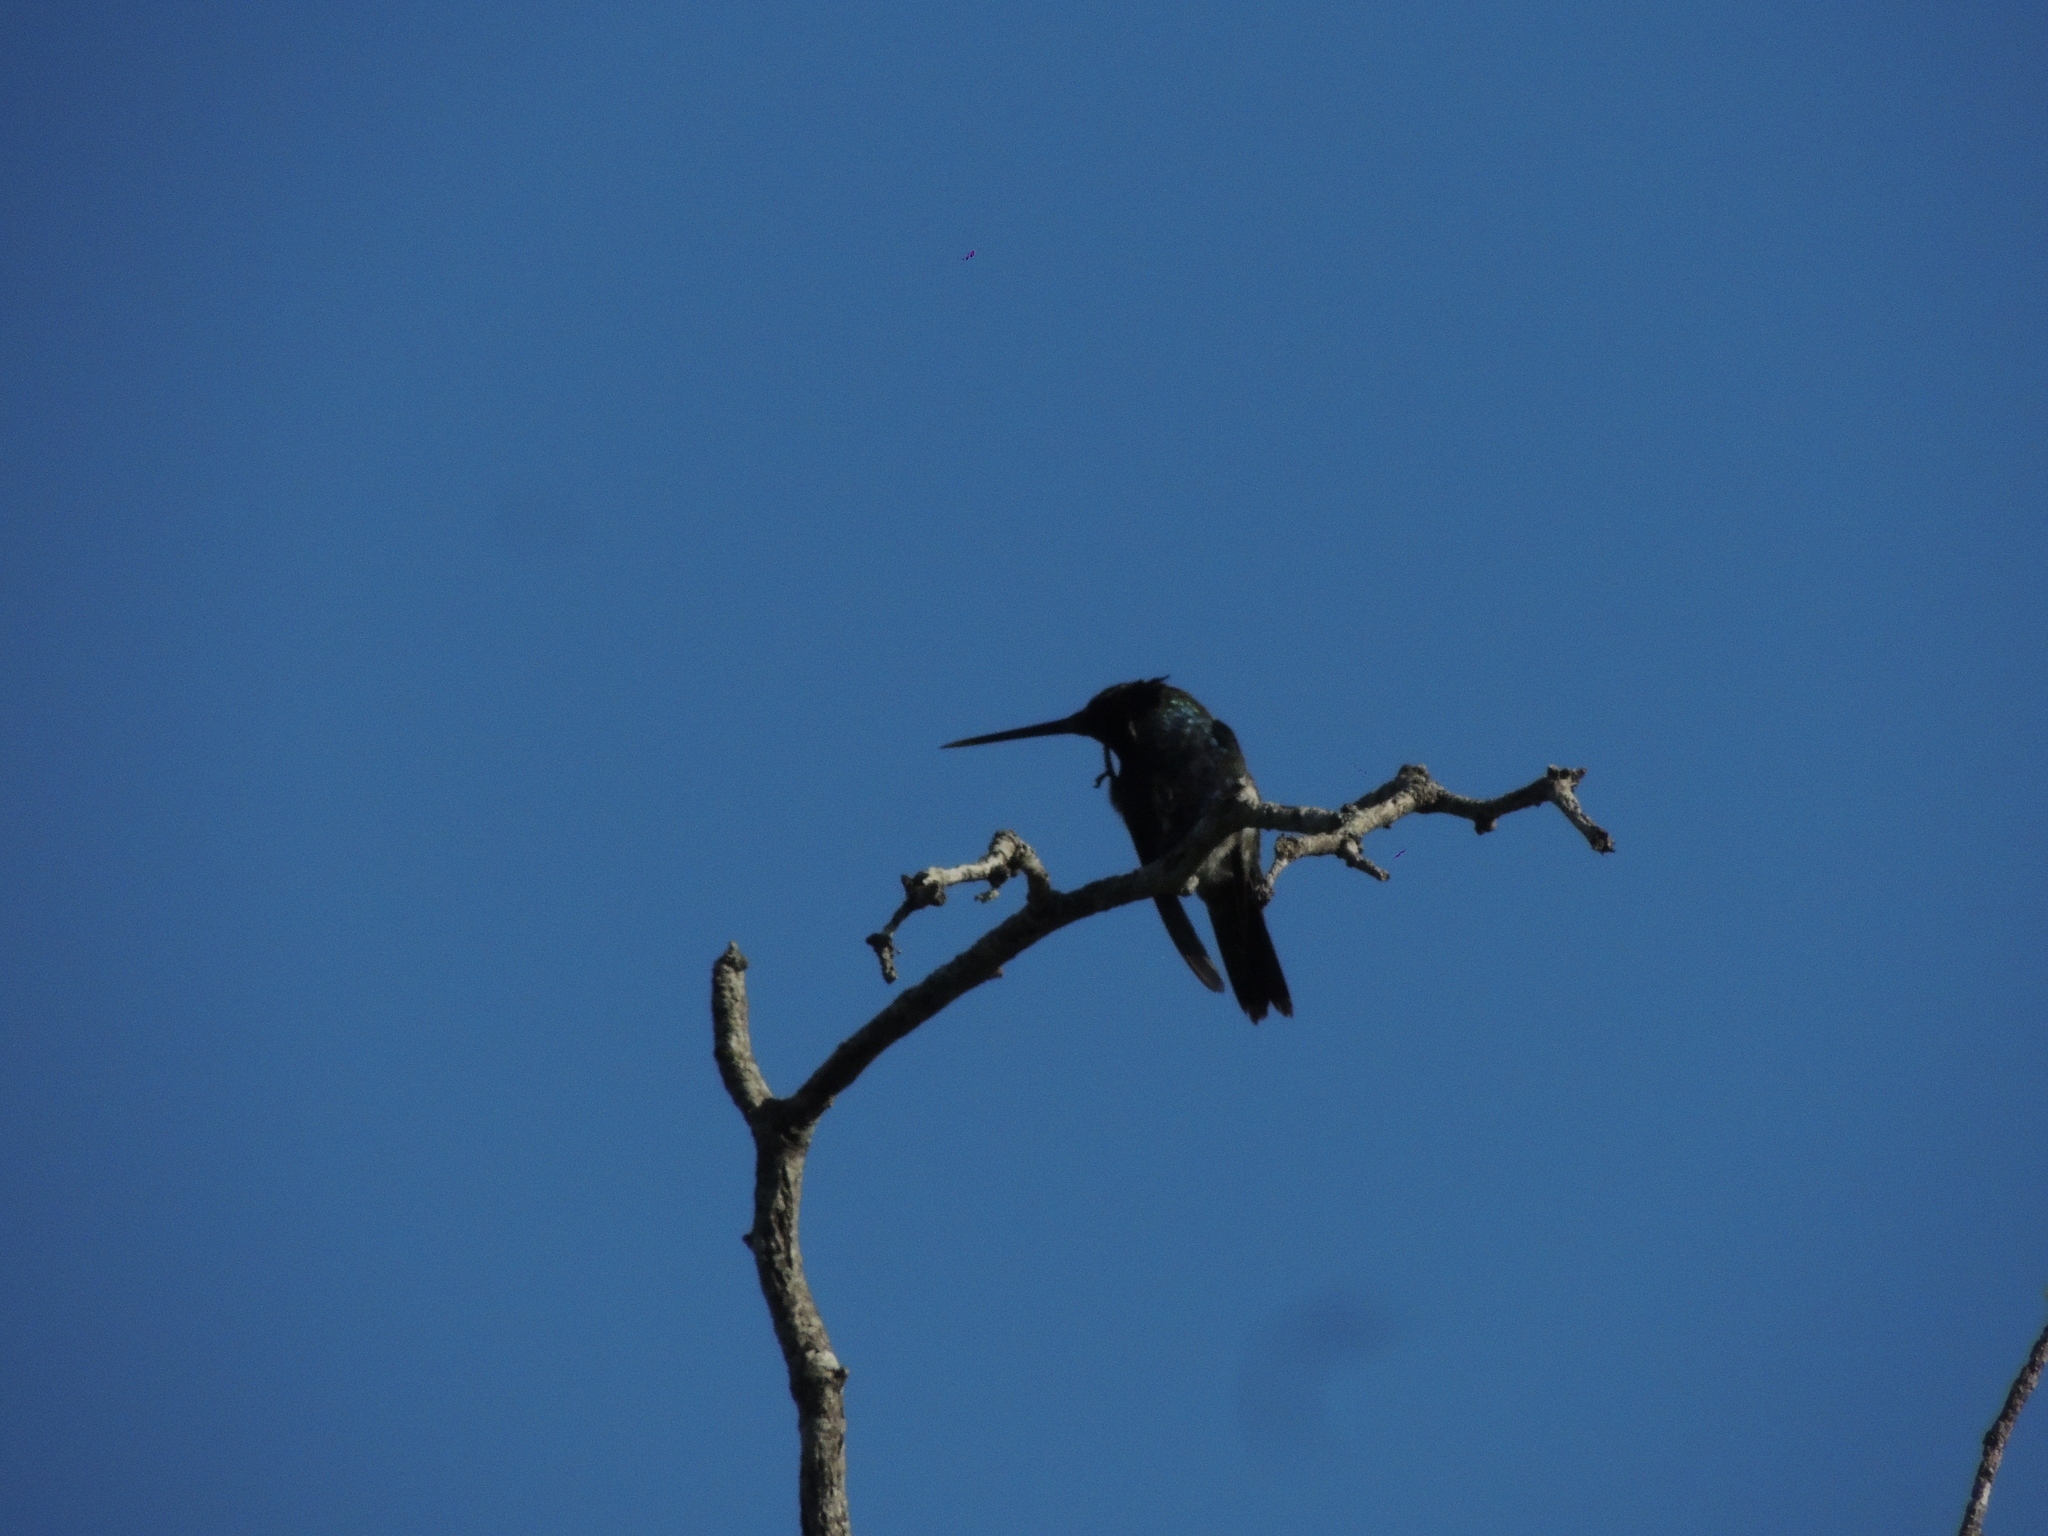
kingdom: Animalia
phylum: Chordata
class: Aves
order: Apodiformes
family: Trochilidae
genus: Heliomaster
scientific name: Heliomaster furcifer
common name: Blue-tufted starthroat
